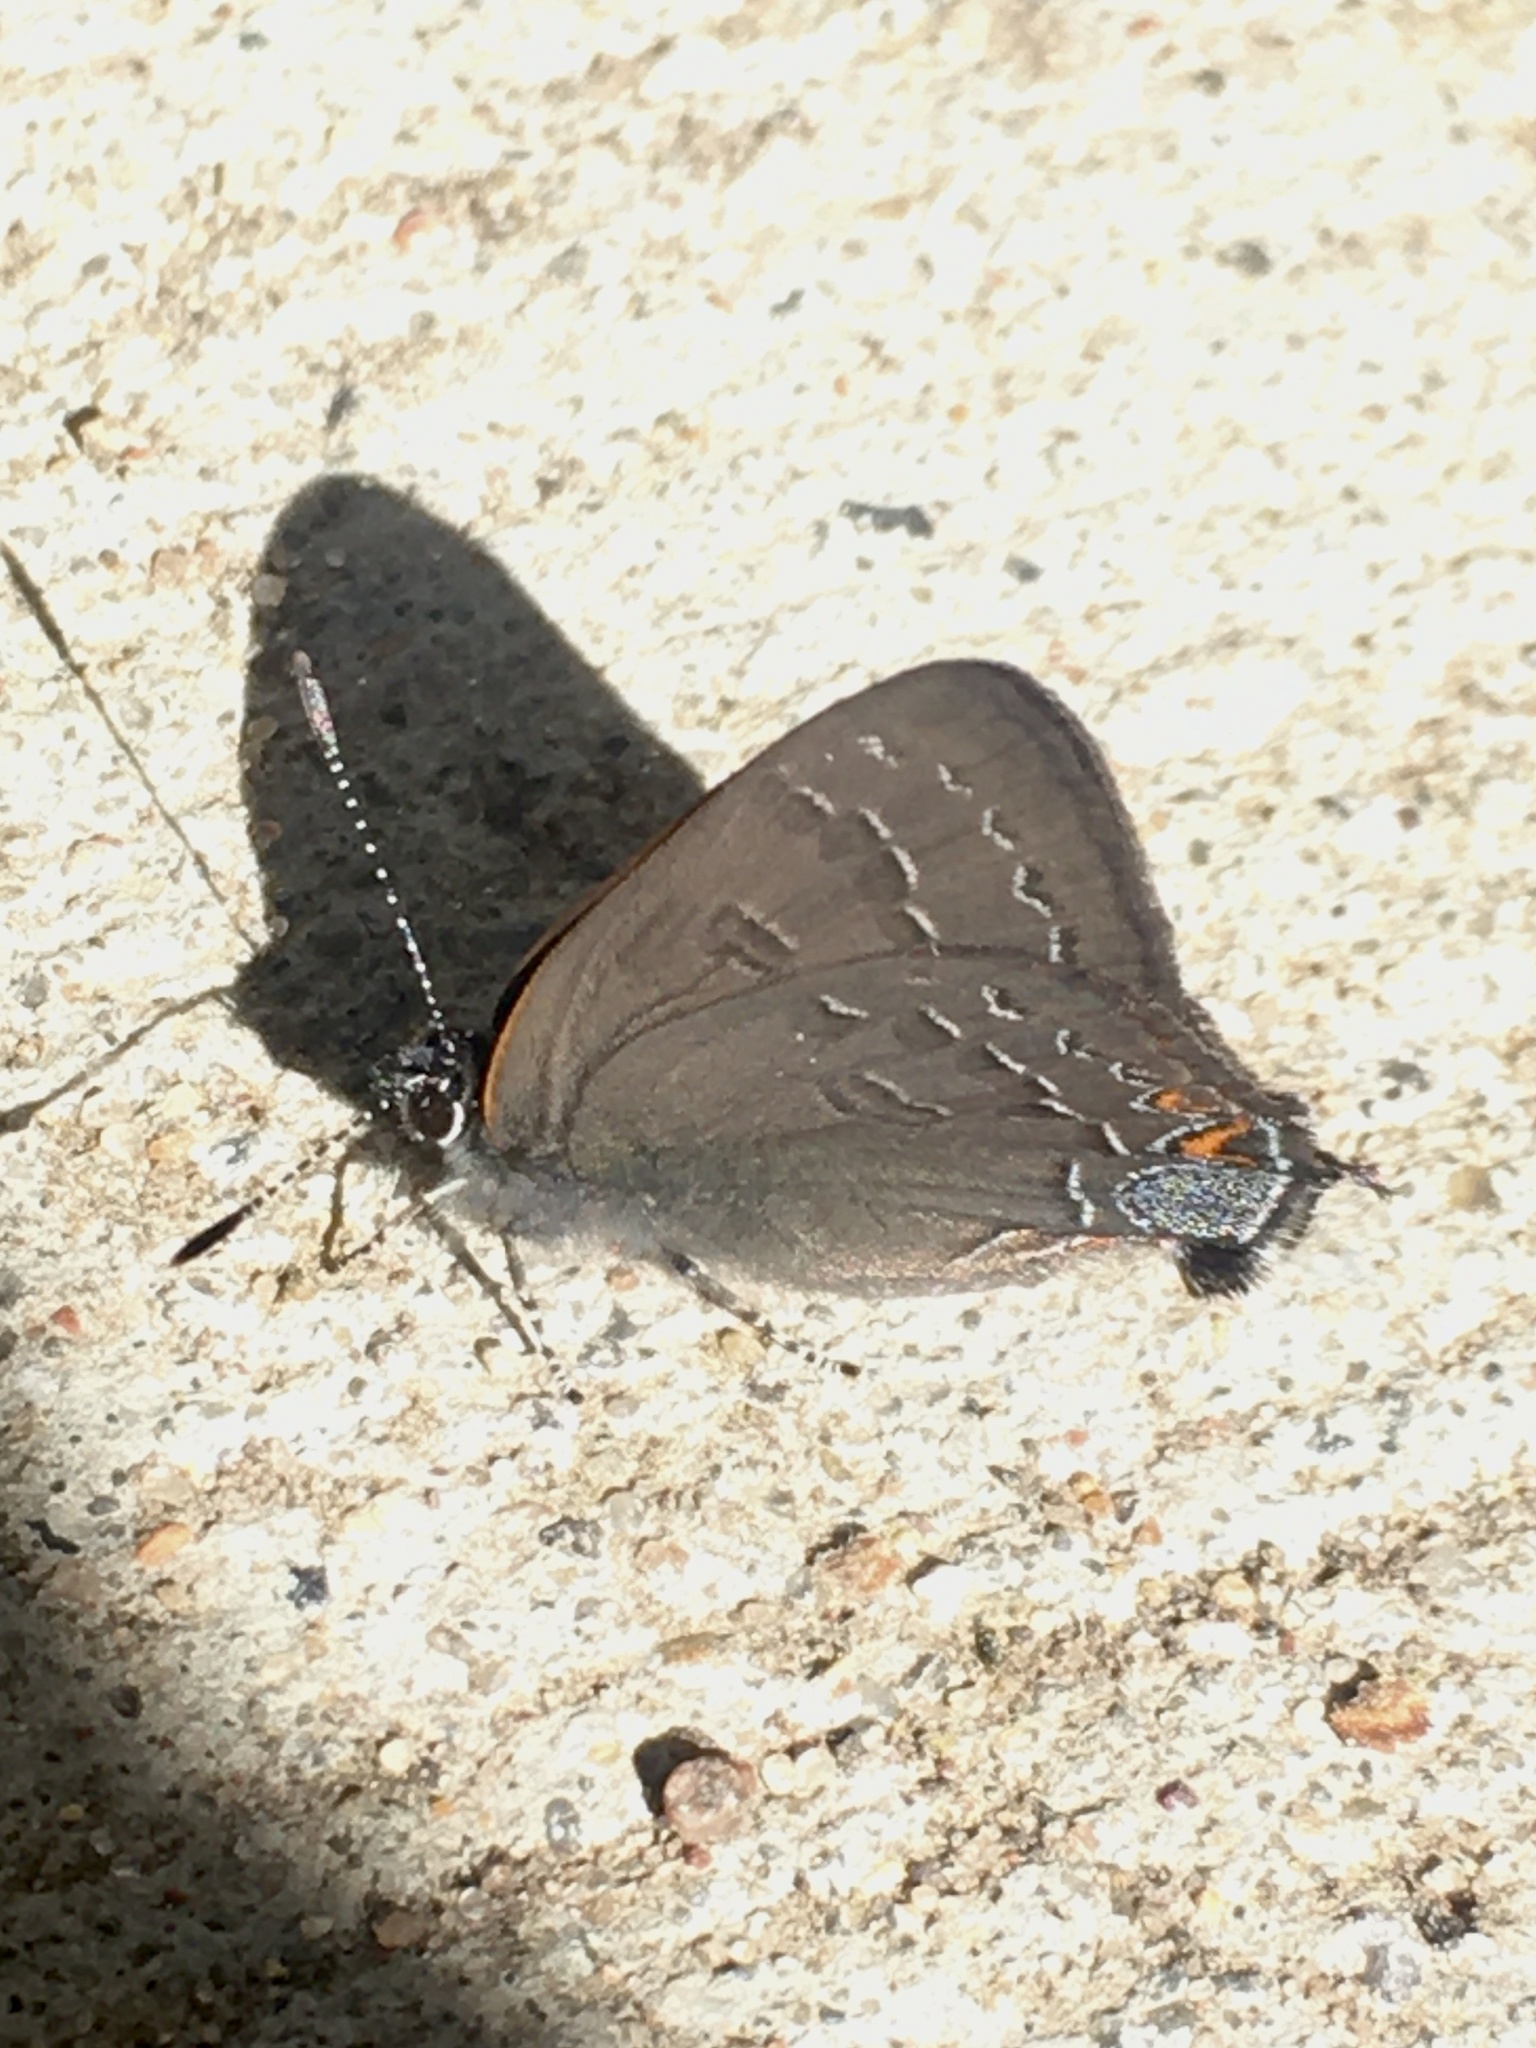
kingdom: Animalia
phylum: Arthropoda
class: Insecta
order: Lepidoptera
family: Lycaenidae
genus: Satyrium
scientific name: Satyrium calanus
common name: Banded hairstreak
